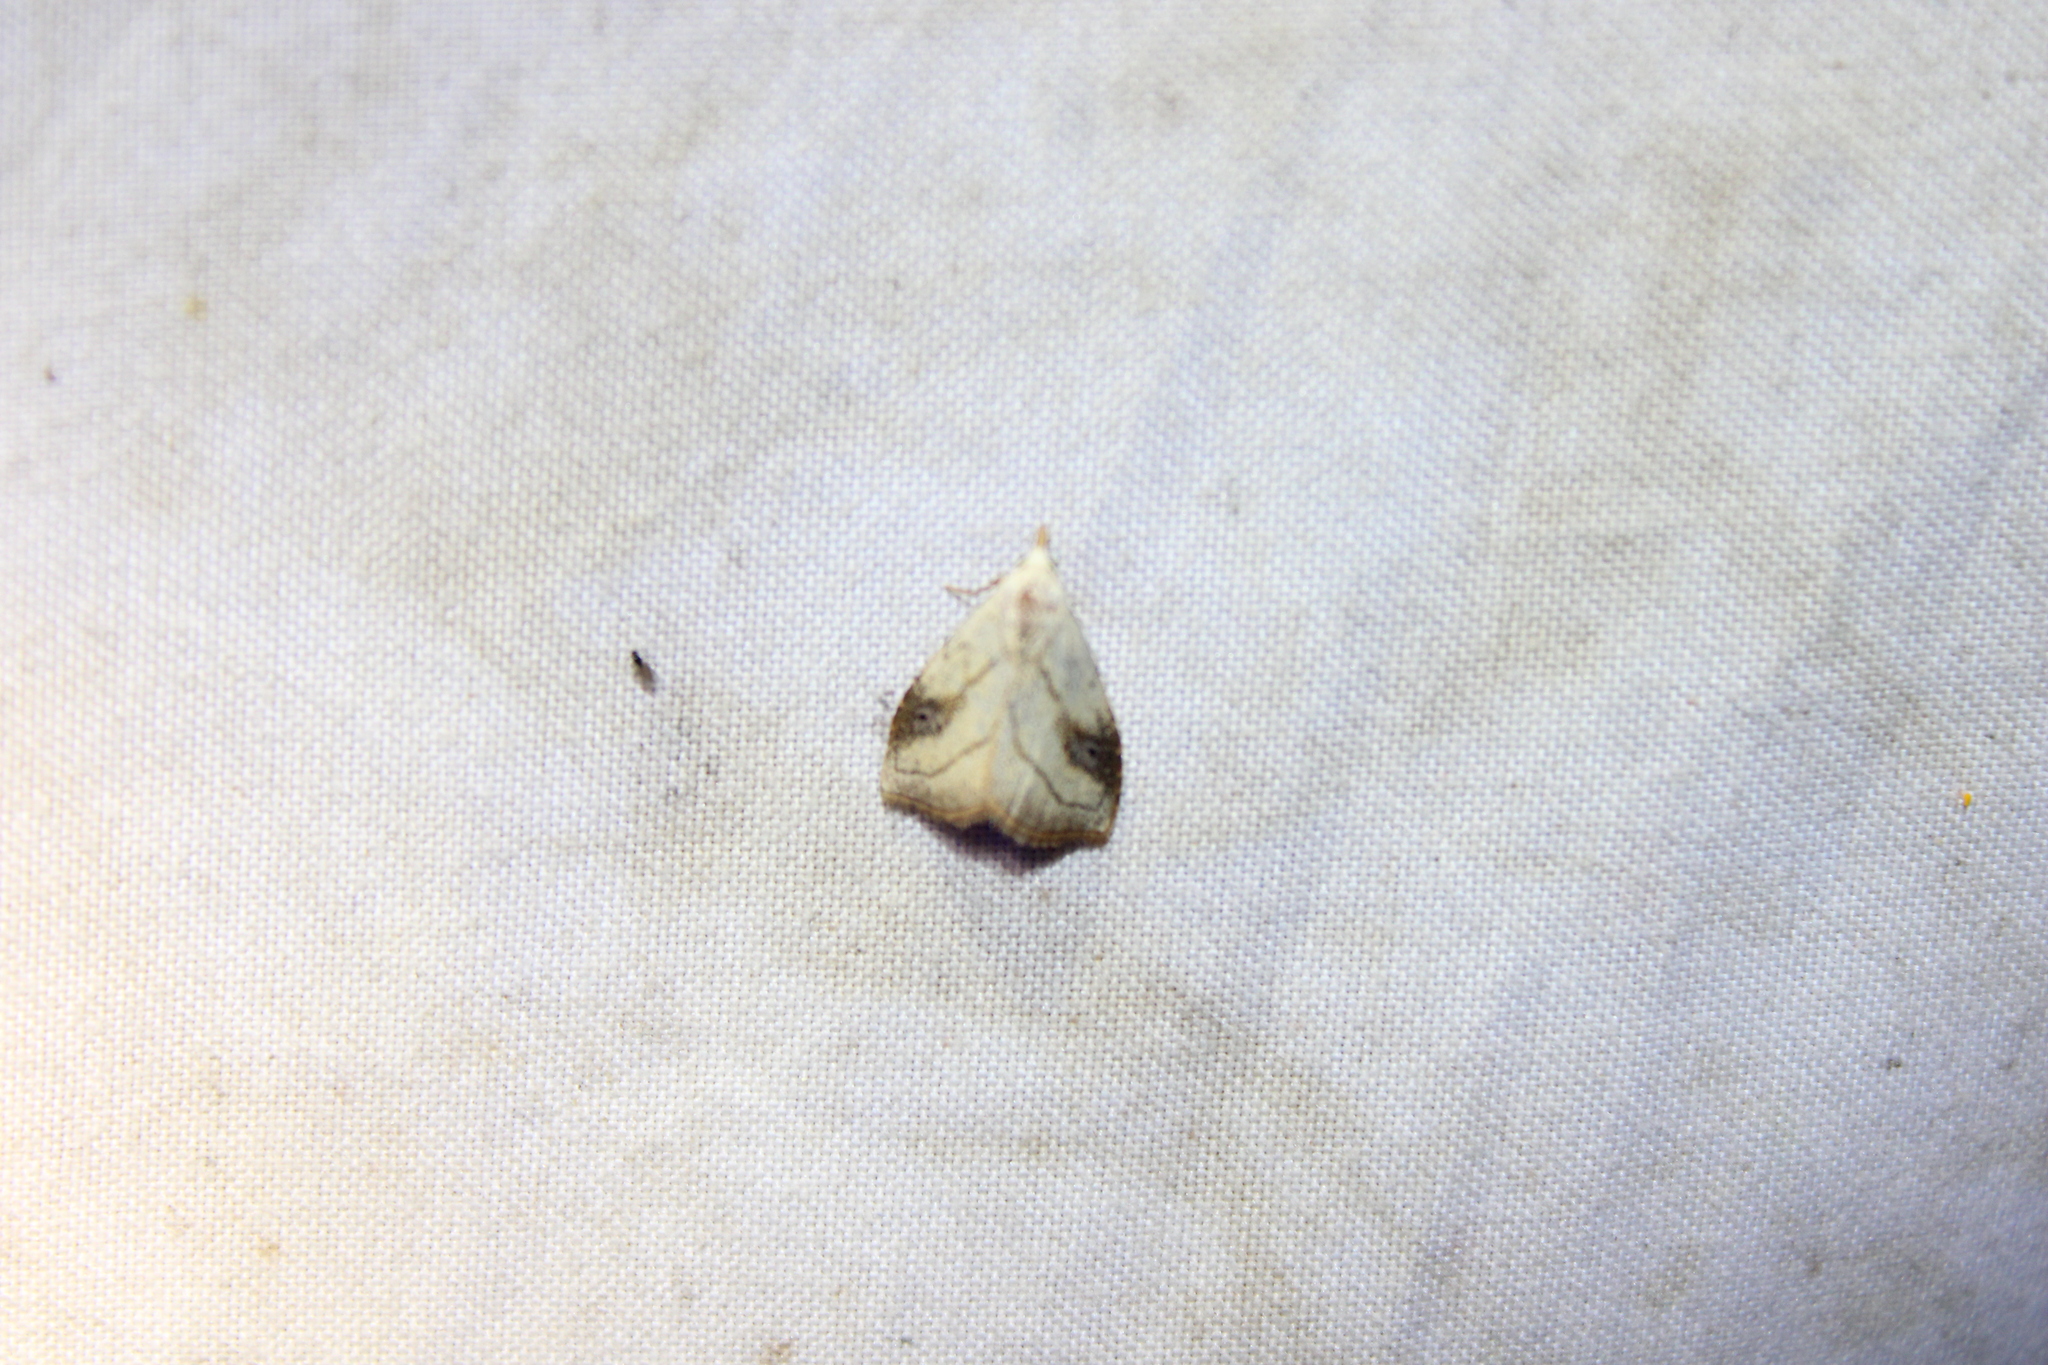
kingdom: Animalia
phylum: Arthropoda
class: Insecta
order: Lepidoptera
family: Erebidae
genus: Rivula
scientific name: Rivula propinqualis
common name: Spotted grass moth
